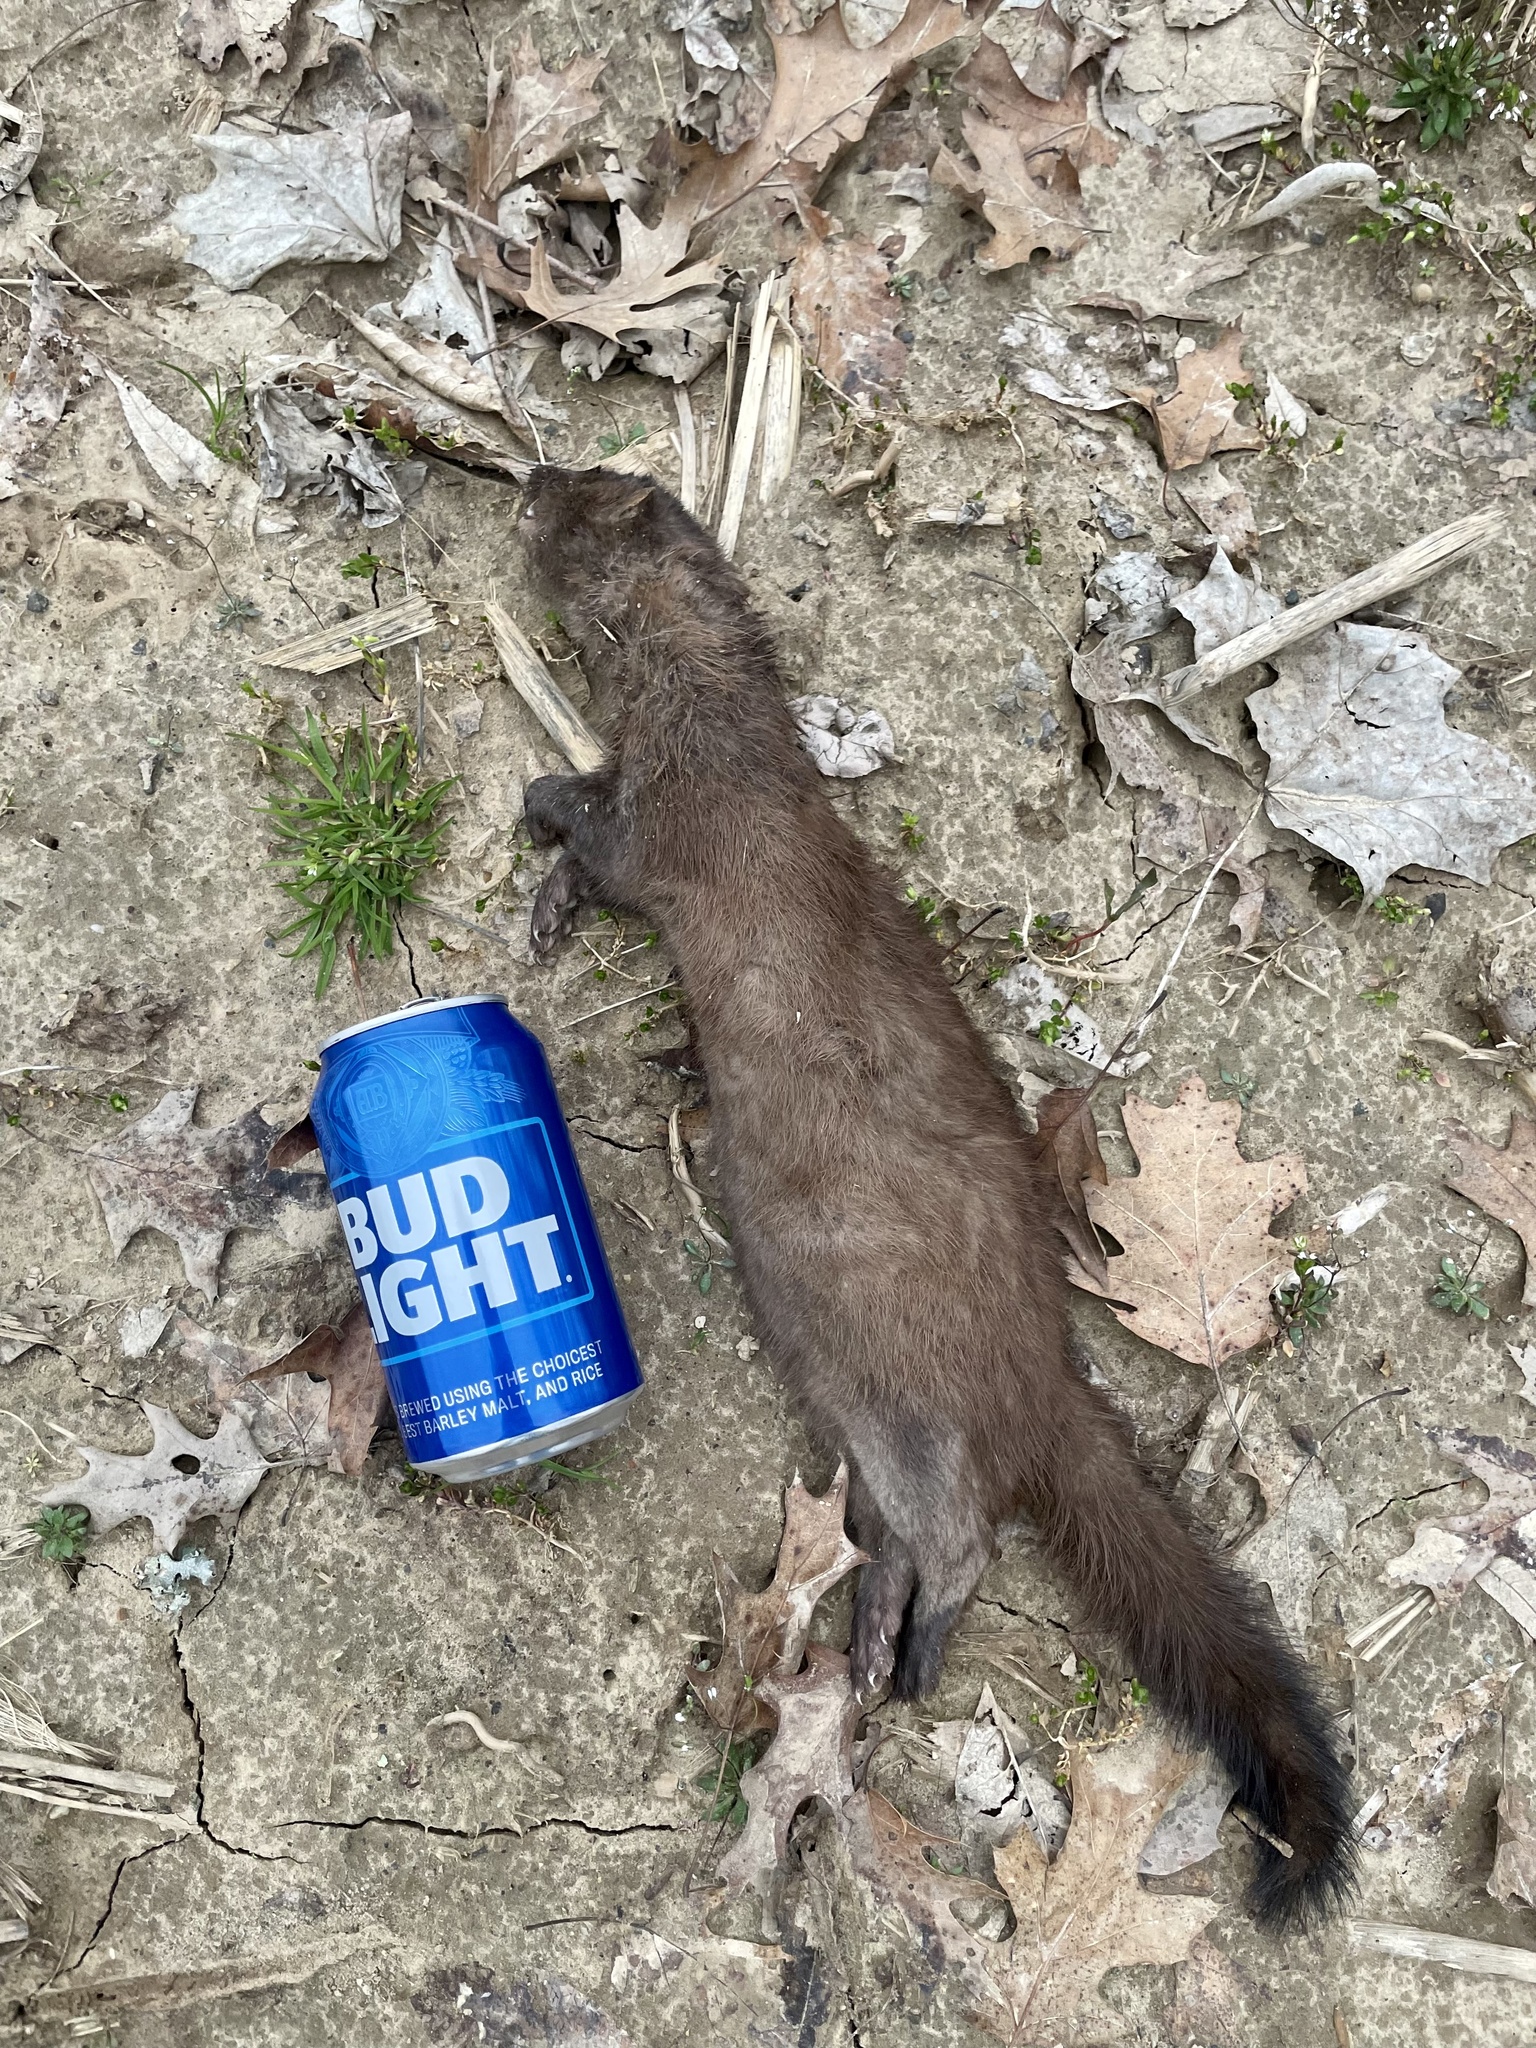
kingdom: Animalia
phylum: Chordata
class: Mammalia
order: Carnivora
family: Mustelidae
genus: Mustela
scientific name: Mustela
